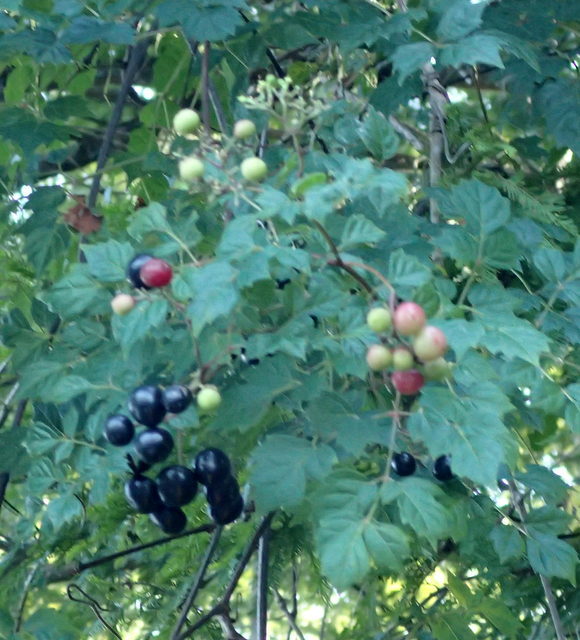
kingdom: Plantae
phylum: Tracheophyta
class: Magnoliopsida
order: Vitales
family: Vitaceae
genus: Nekemias
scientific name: Nekemias arborea
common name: Peppervine
